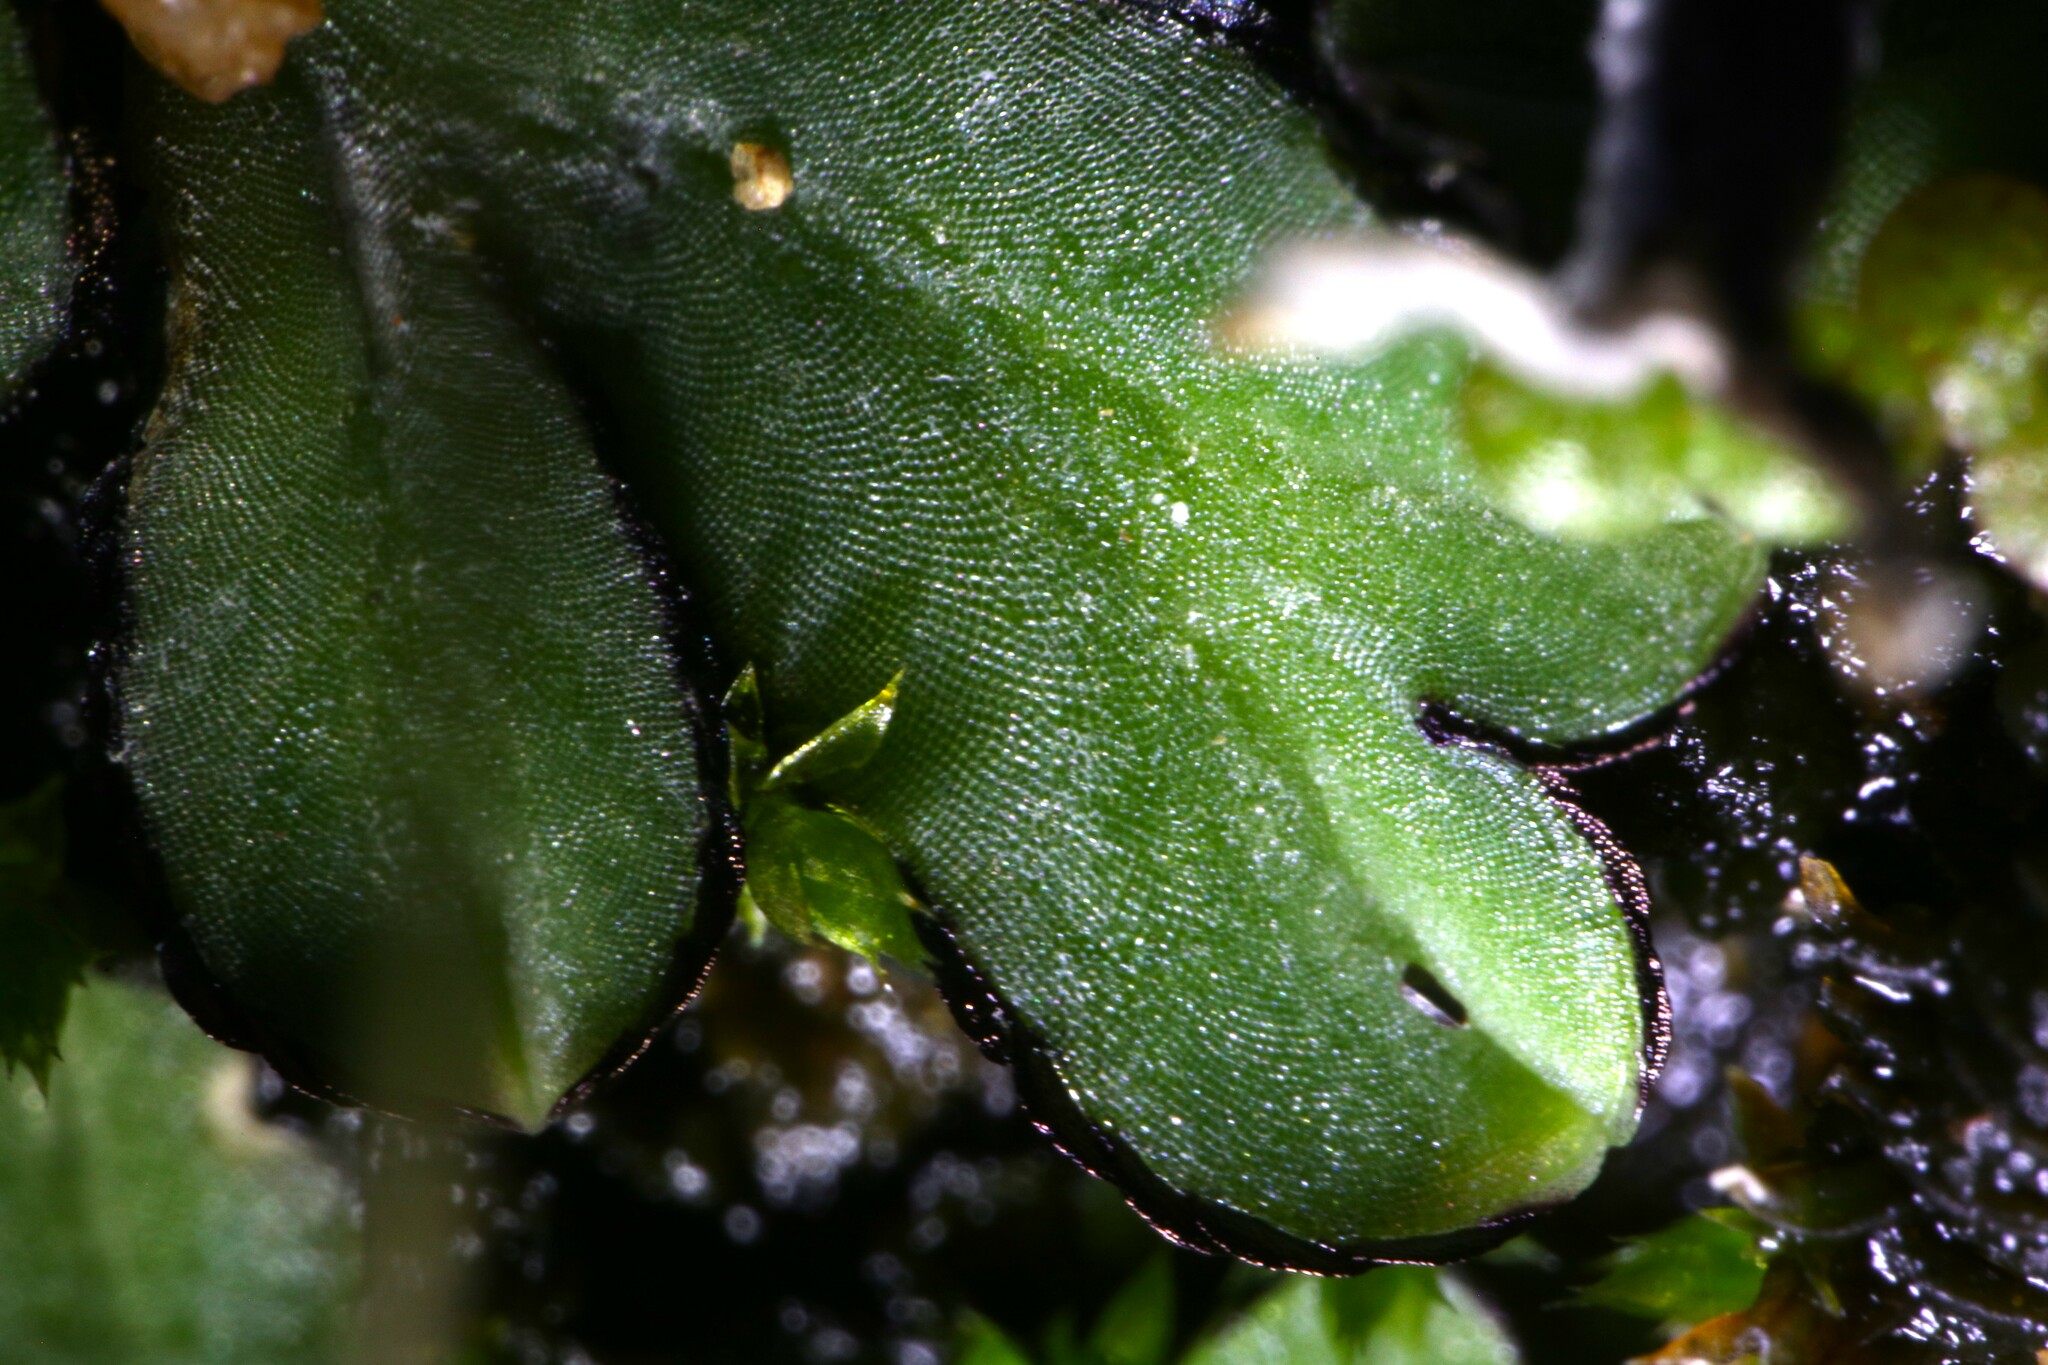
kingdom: Plantae
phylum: Marchantiophyta
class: Marchantiopsida
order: Marchantiales
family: Ricciaceae
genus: Riccia
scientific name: Riccia inflexa
